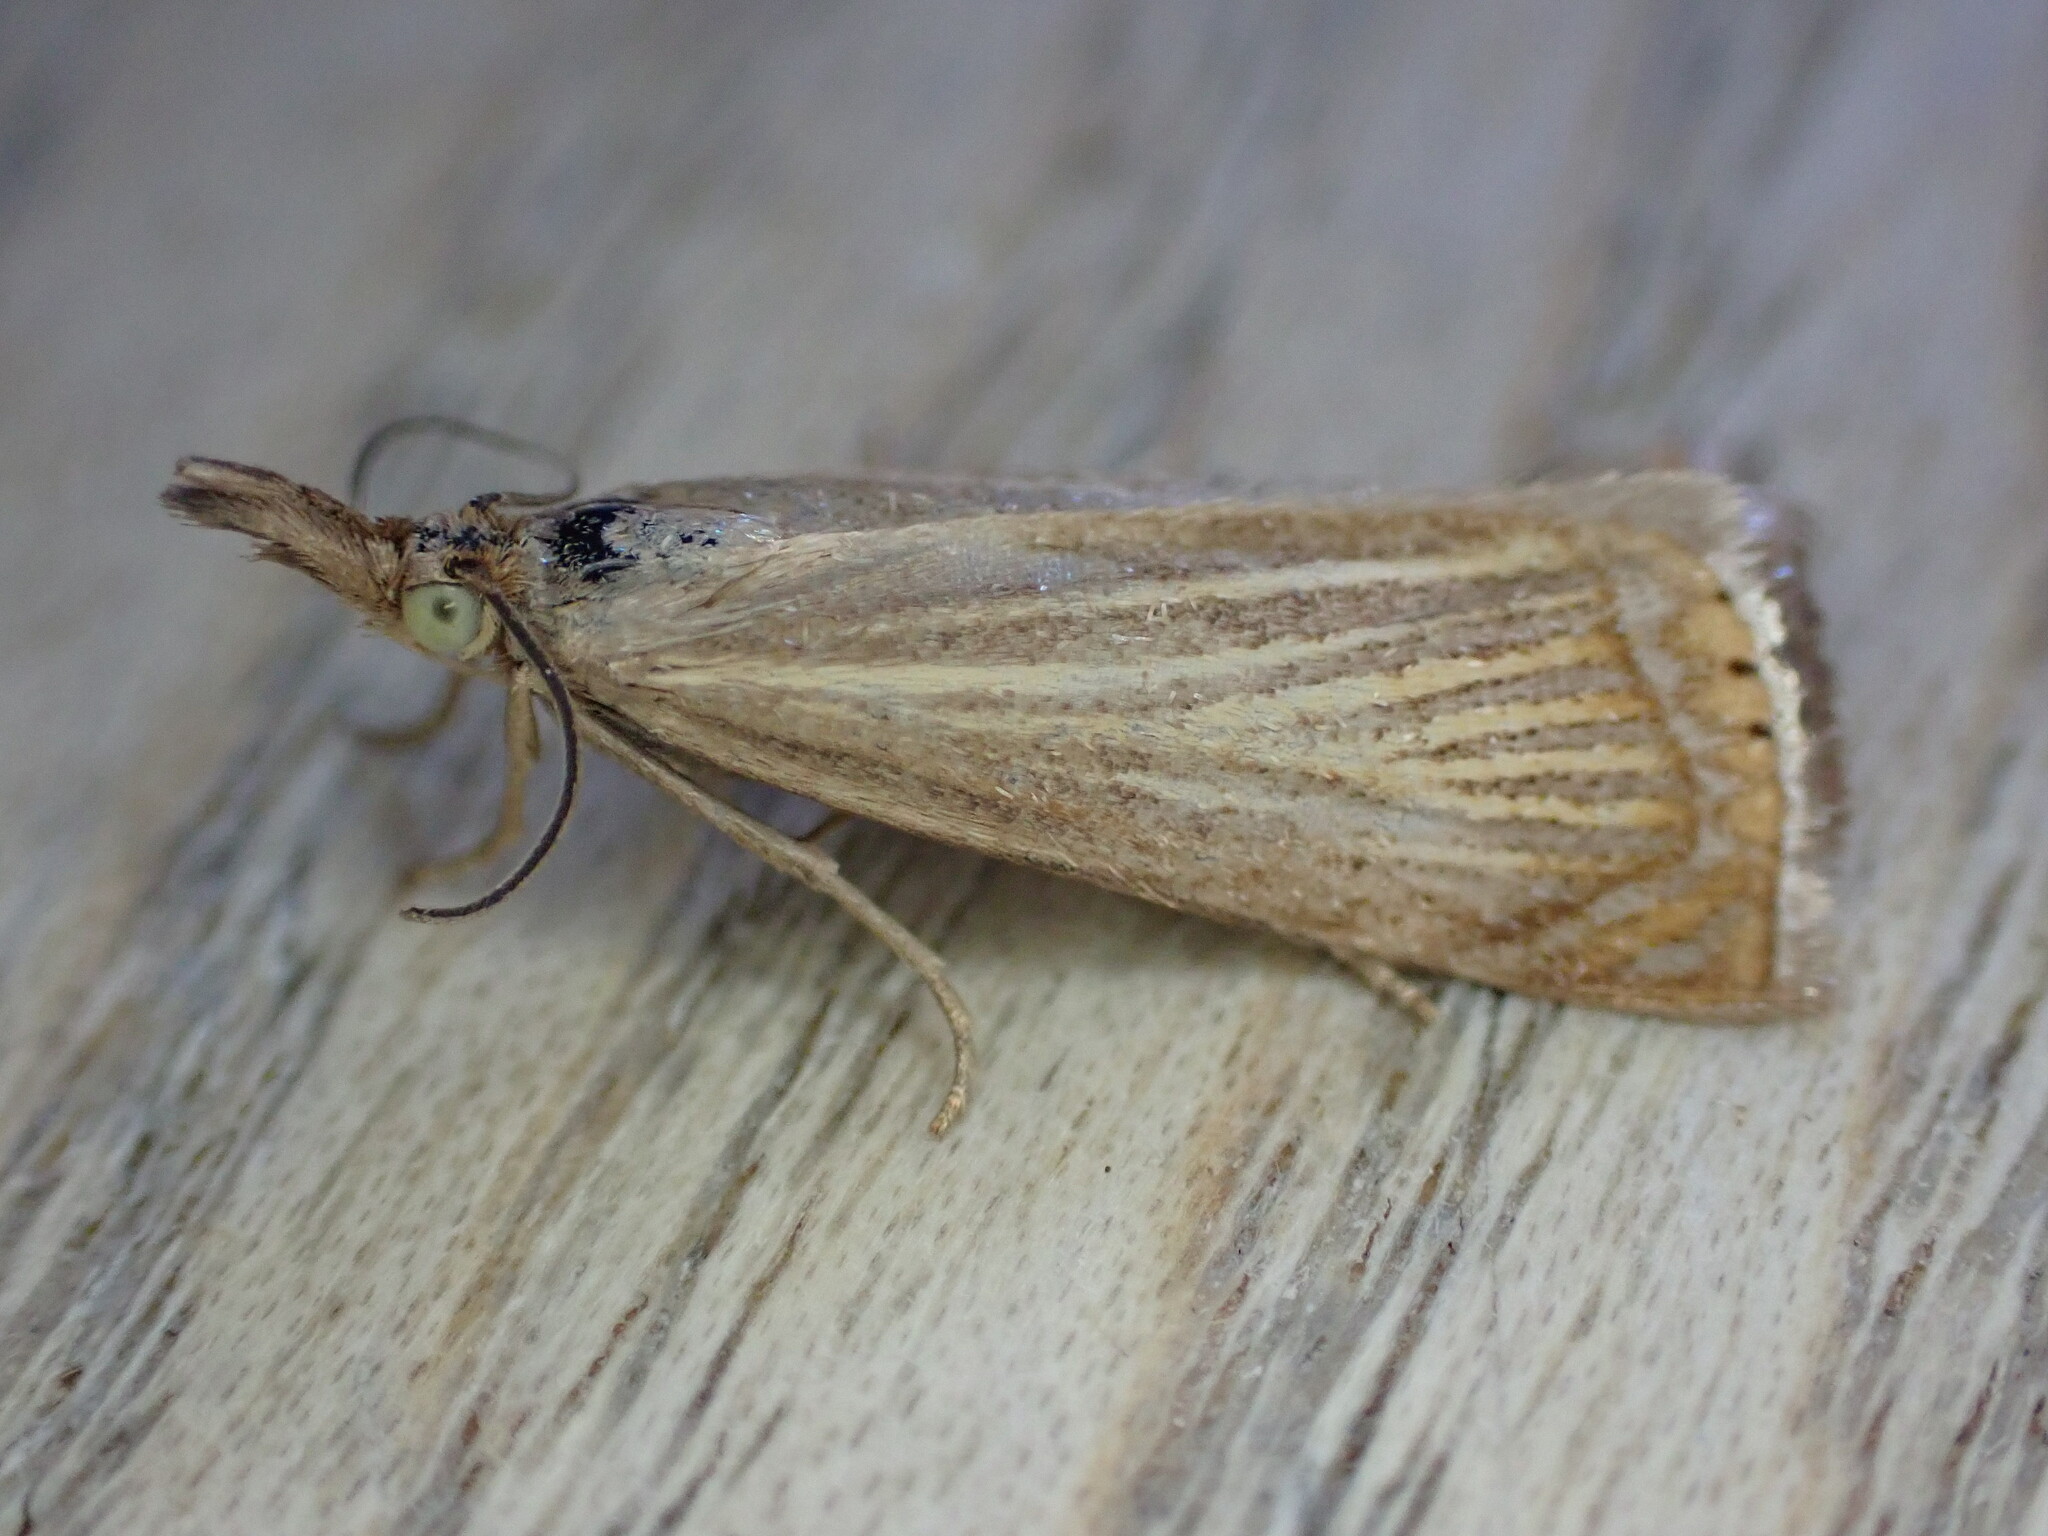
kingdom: Animalia
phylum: Arthropoda
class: Insecta
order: Lepidoptera
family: Crambidae
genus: Chrysoteuchia
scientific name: Chrysoteuchia culmella
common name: Garden grass-veneer
